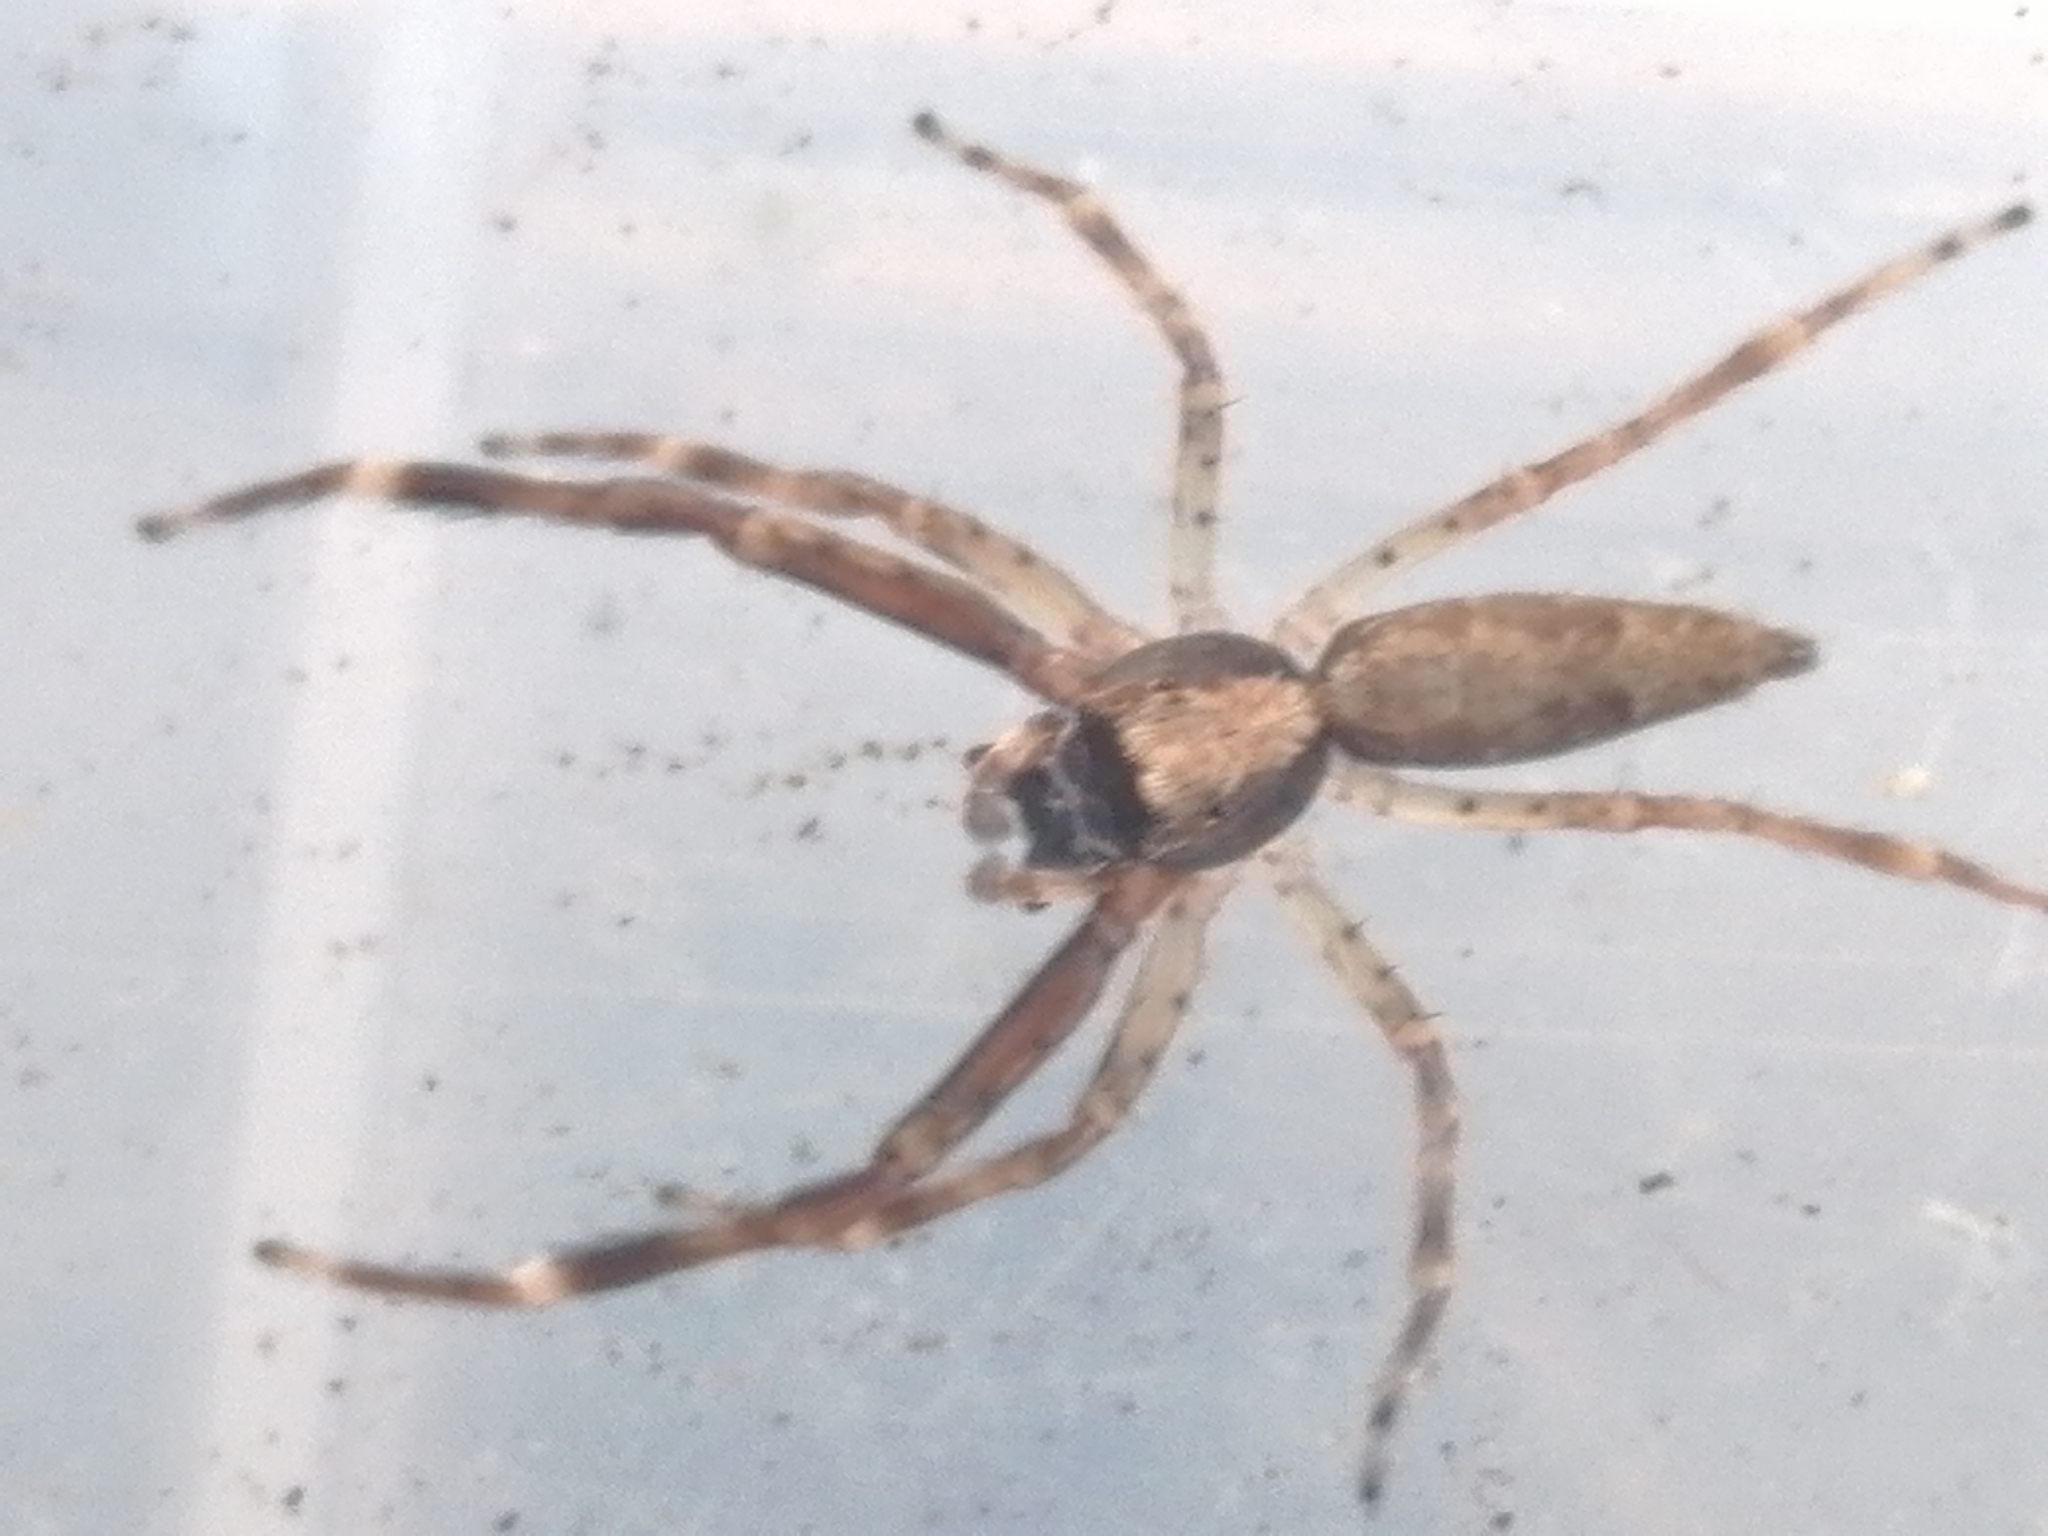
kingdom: Animalia
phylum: Arthropoda
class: Arachnida
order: Araneae
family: Salticidae
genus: Helpis
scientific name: Helpis minitabunda
